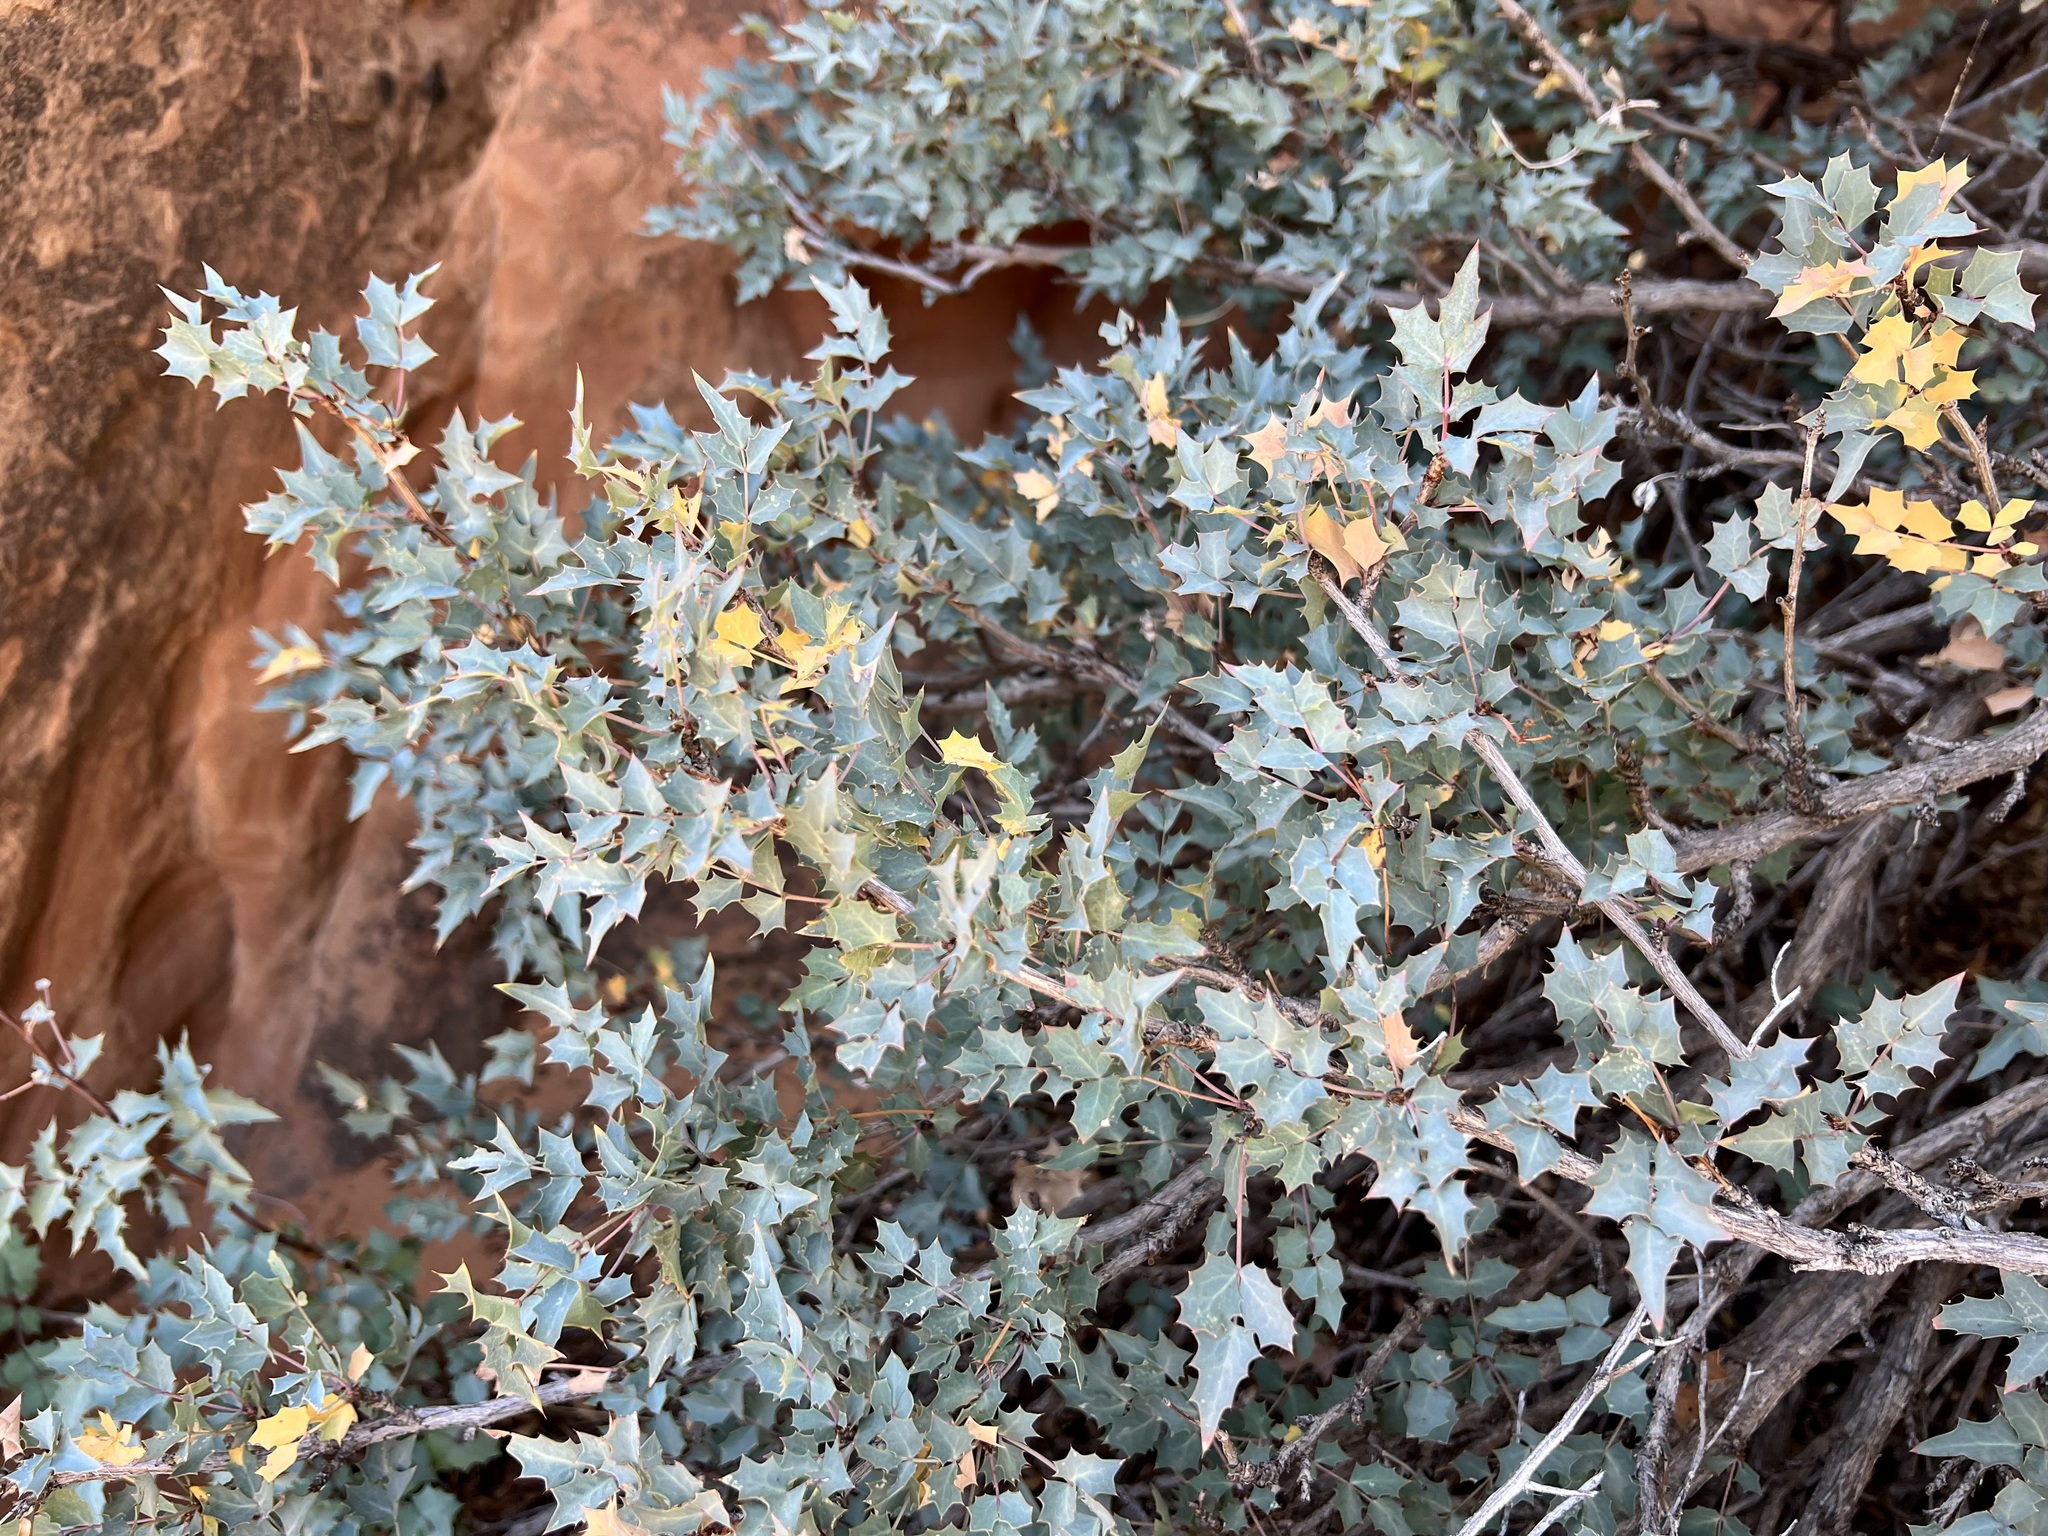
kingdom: Plantae
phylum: Tracheophyta
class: Magnoliopsida
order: Ranunculales
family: Berberidaceae
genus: Alloberberis
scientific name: Alloberberis fremontii
